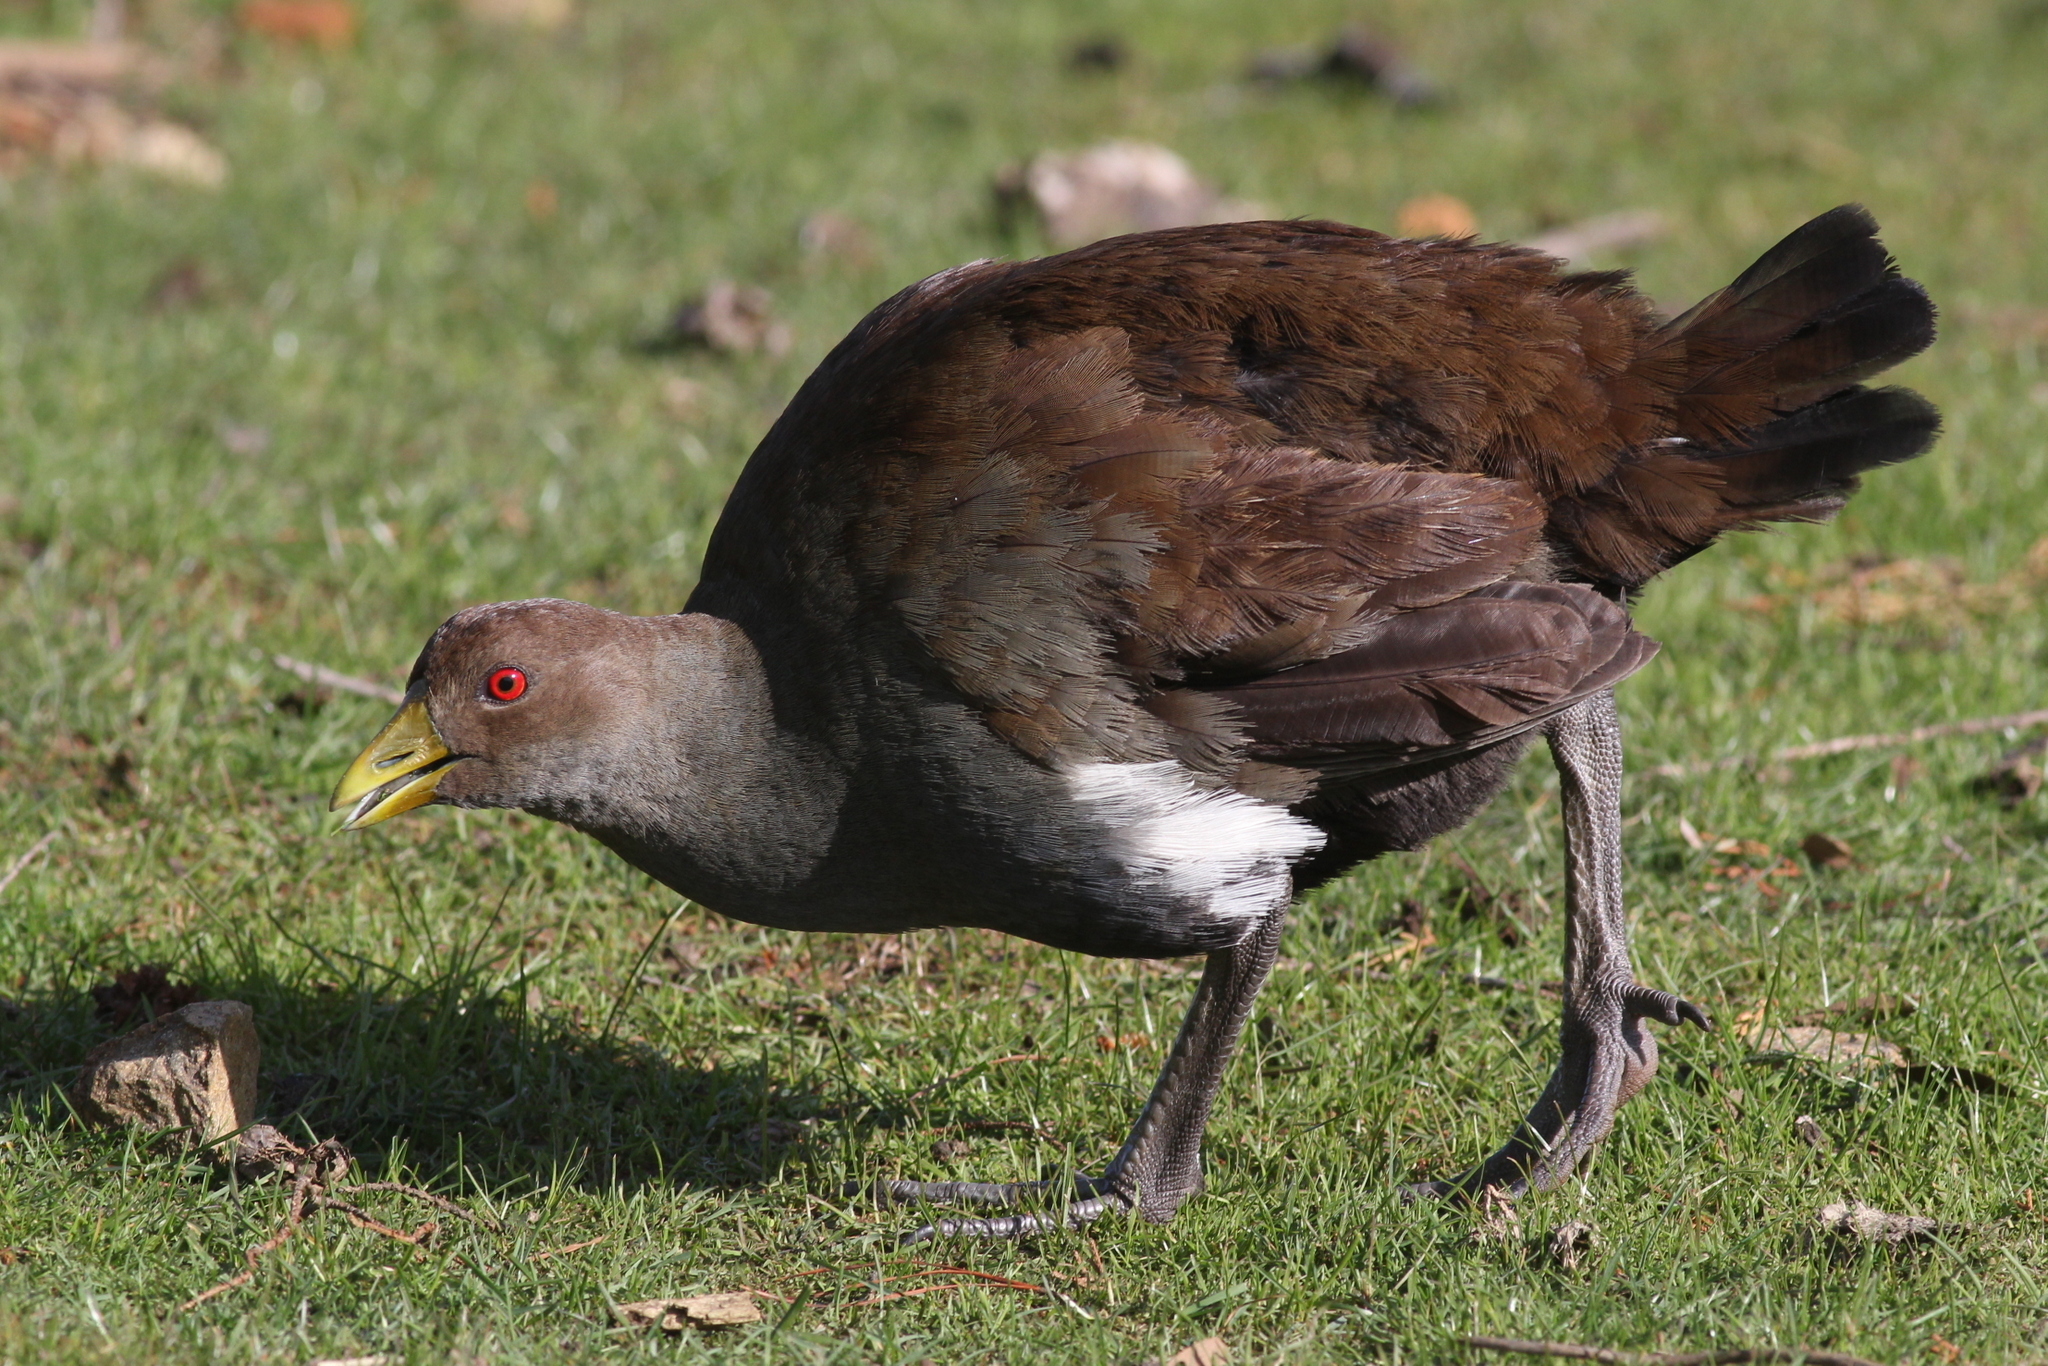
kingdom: Animalia
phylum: Chordata
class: Aves
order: Gruiformes
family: Rallidae
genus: Gallinula
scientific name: Gallinula mortierii
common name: Tasmanian nativehen
